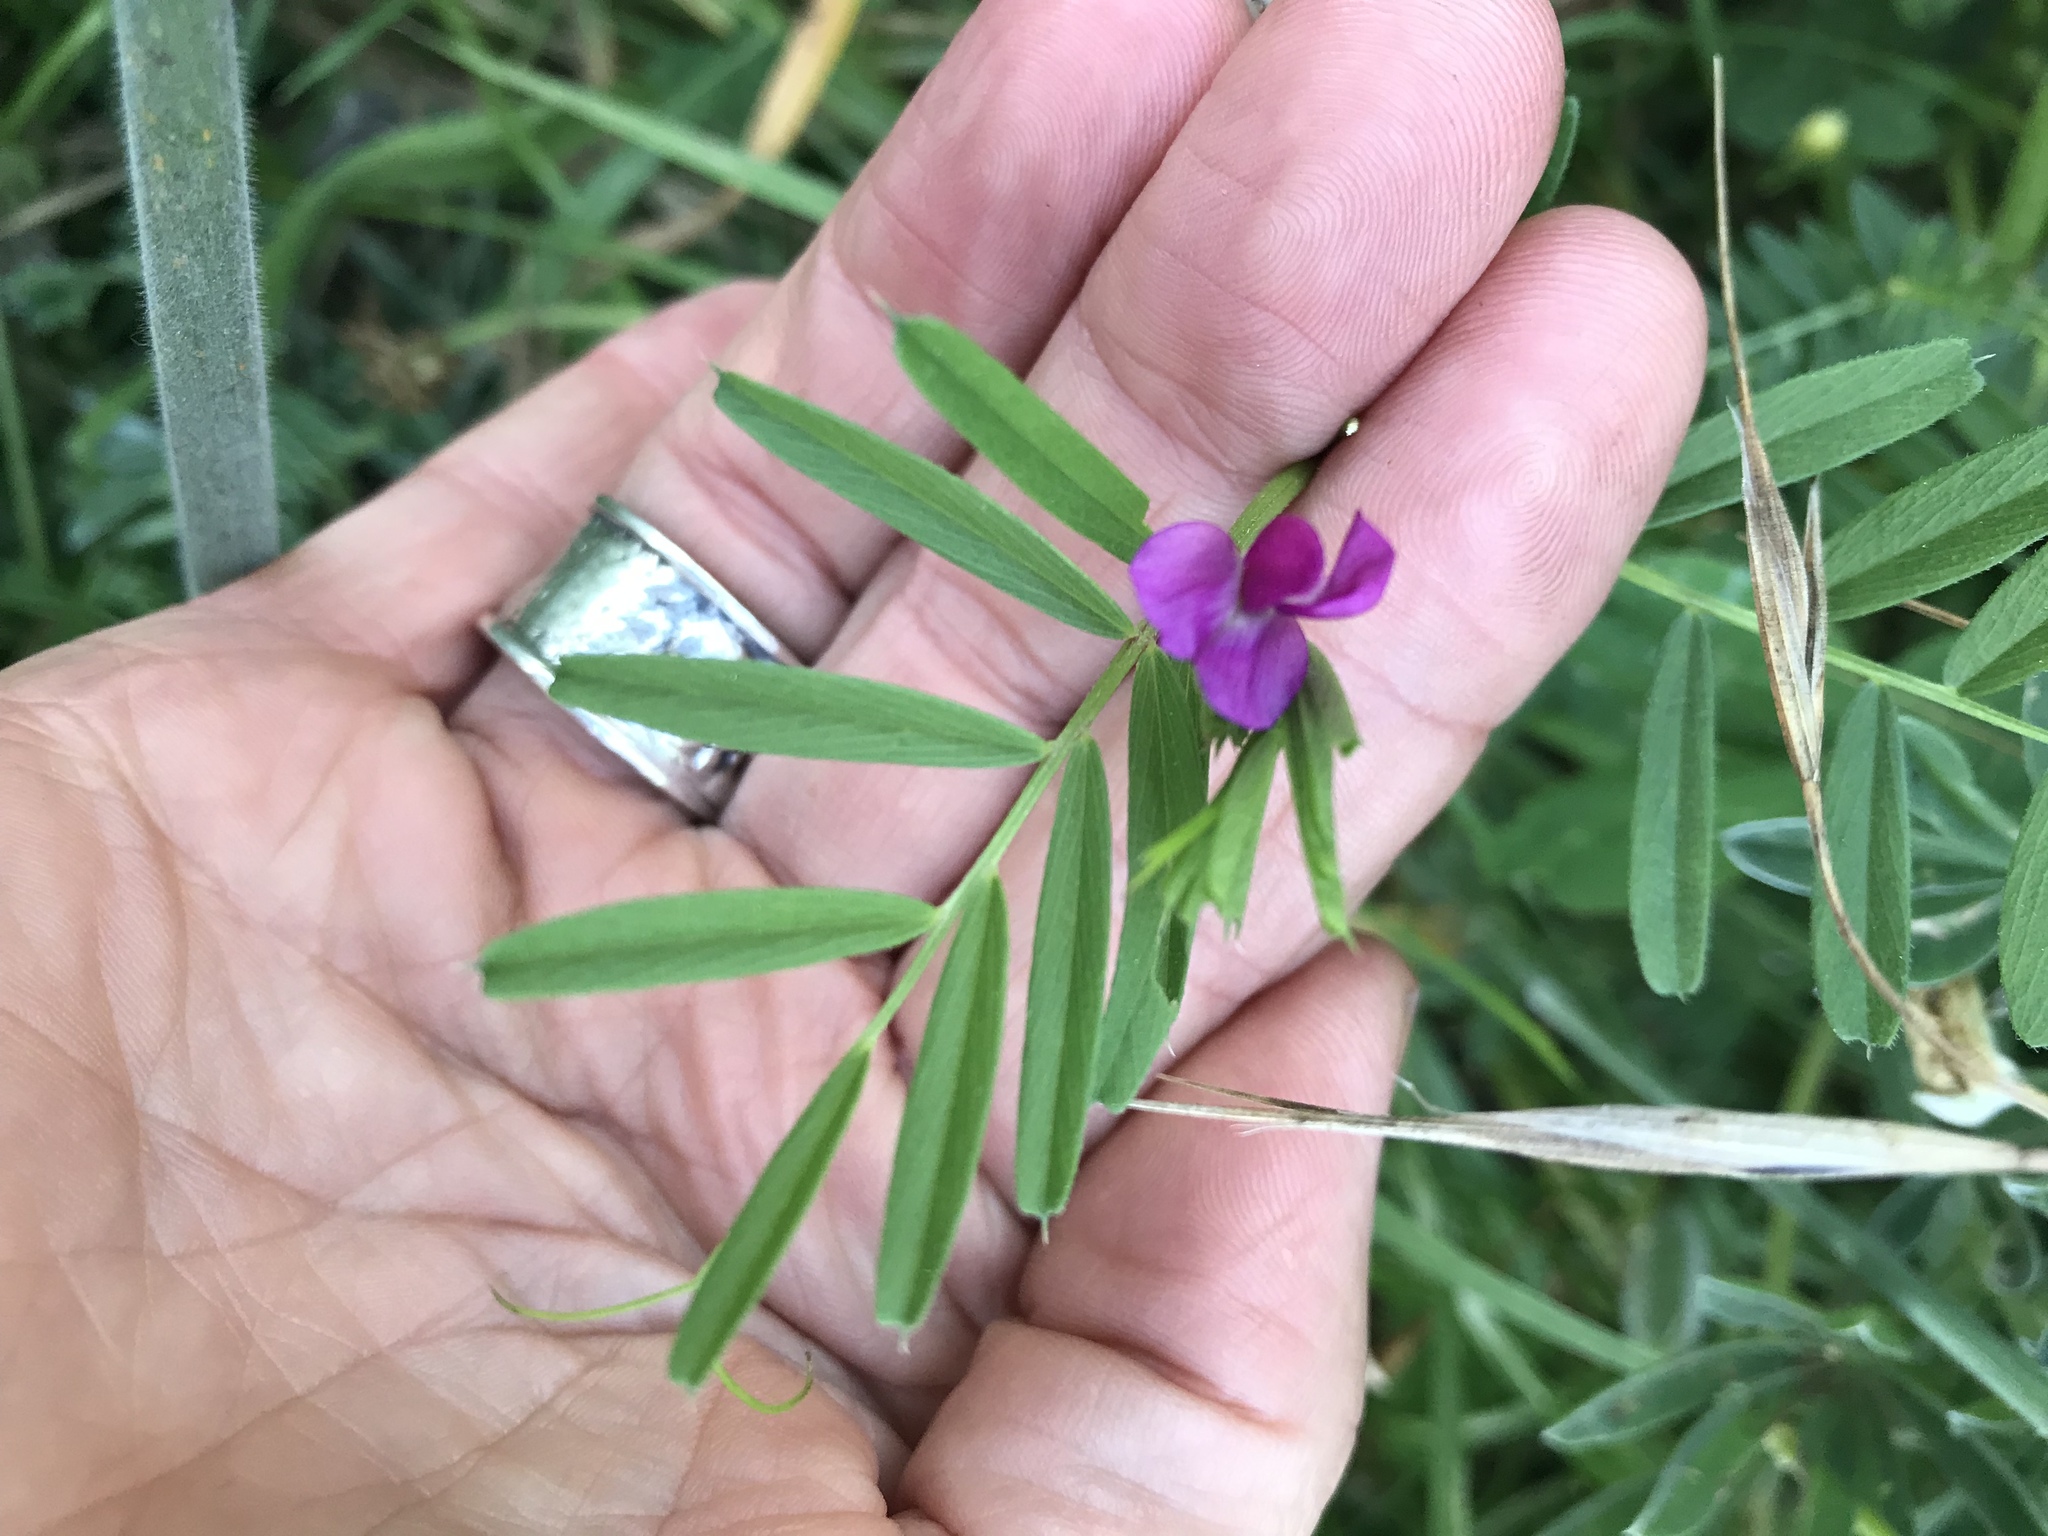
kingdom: Plantae
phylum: Tracheophyta
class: Magnoliopsida
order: Fabales
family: Fabaceae
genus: Vicia
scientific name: Vicia sativa
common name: Garden vetch
